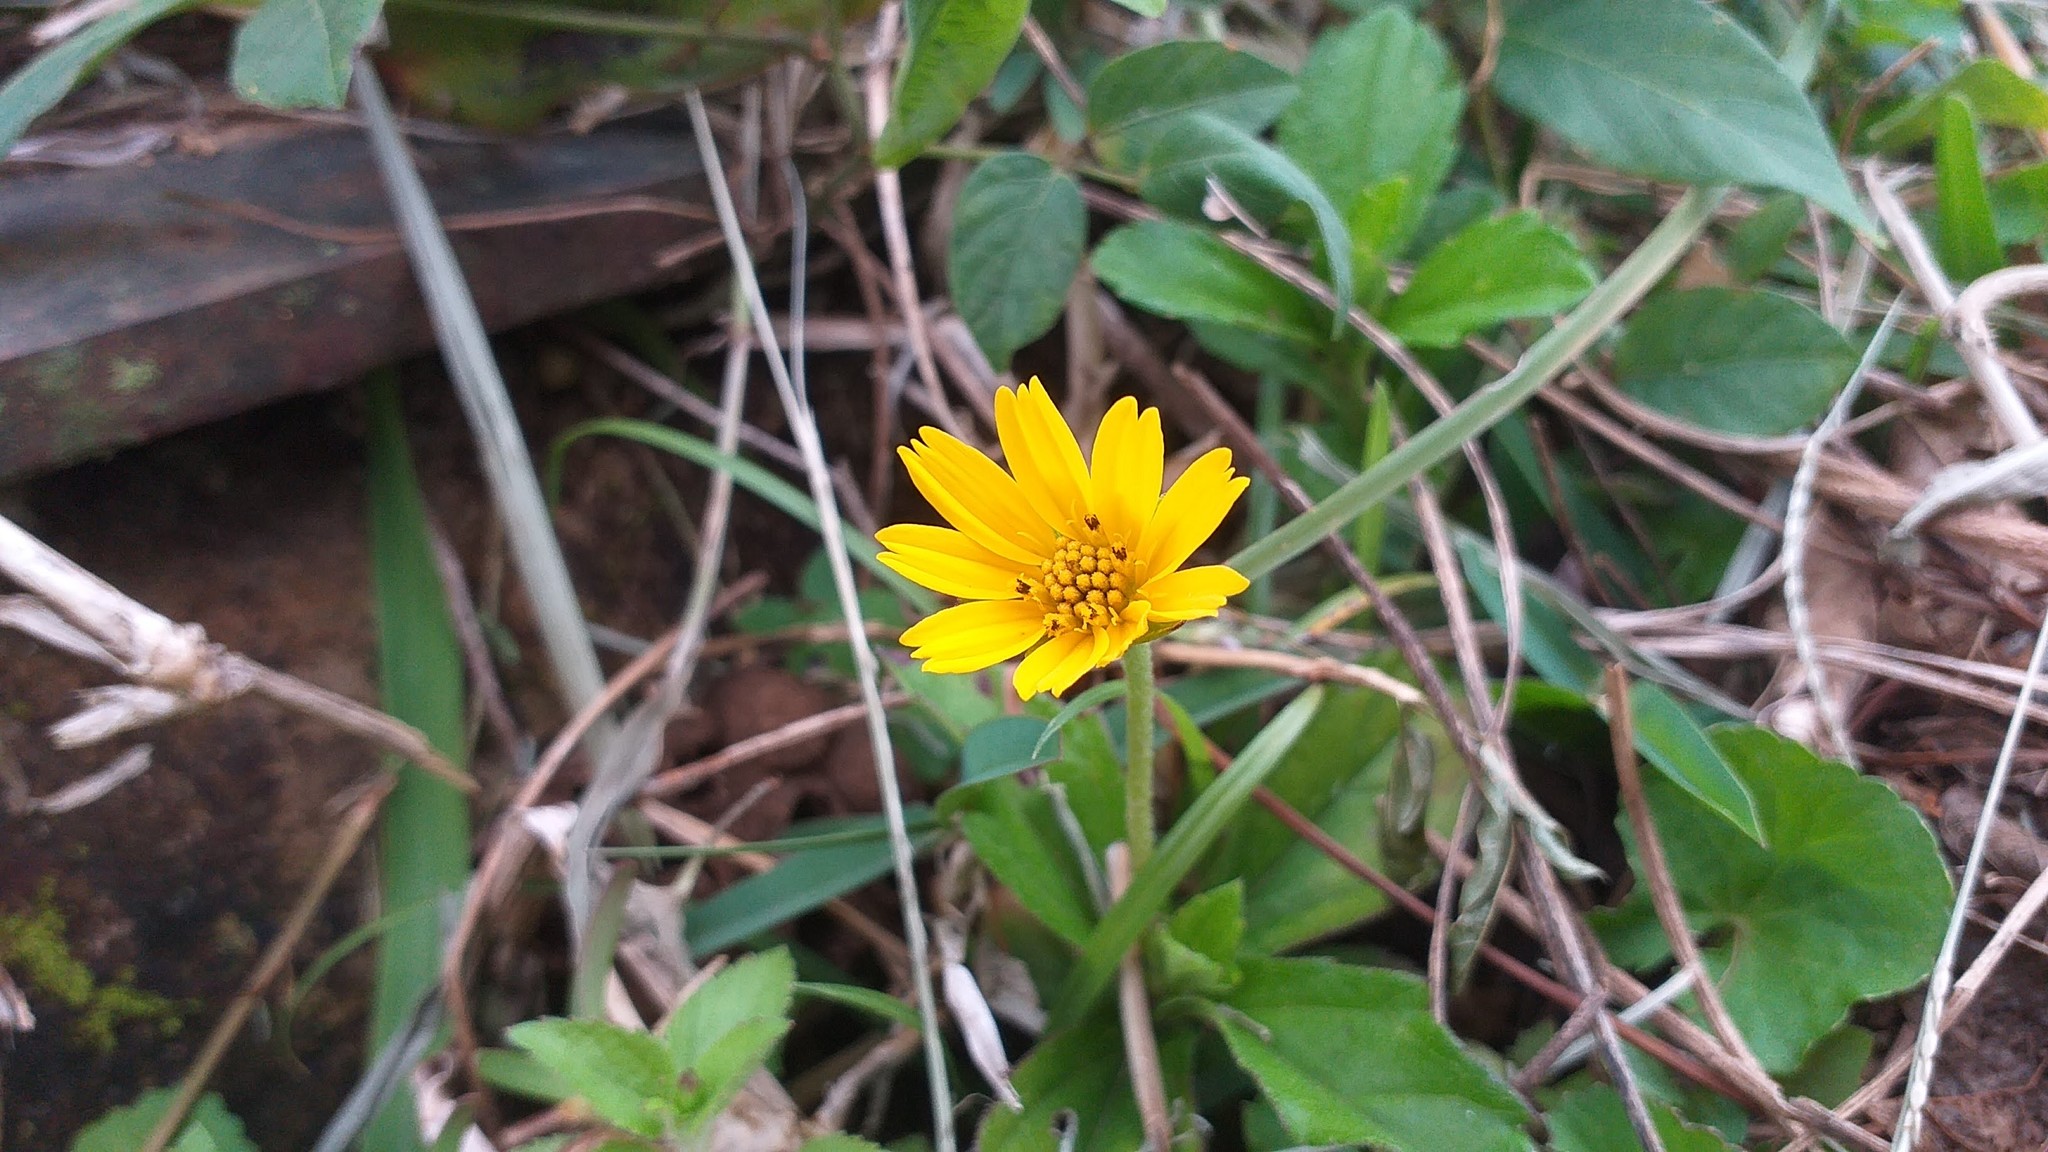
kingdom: Plantae
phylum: Tracheophyta
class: Magnoliopsida
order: Asterales
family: Asteraceae
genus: Sphagneticola
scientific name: Sphagneticola trilobata
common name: Bay biscayne creeping-oxeye
